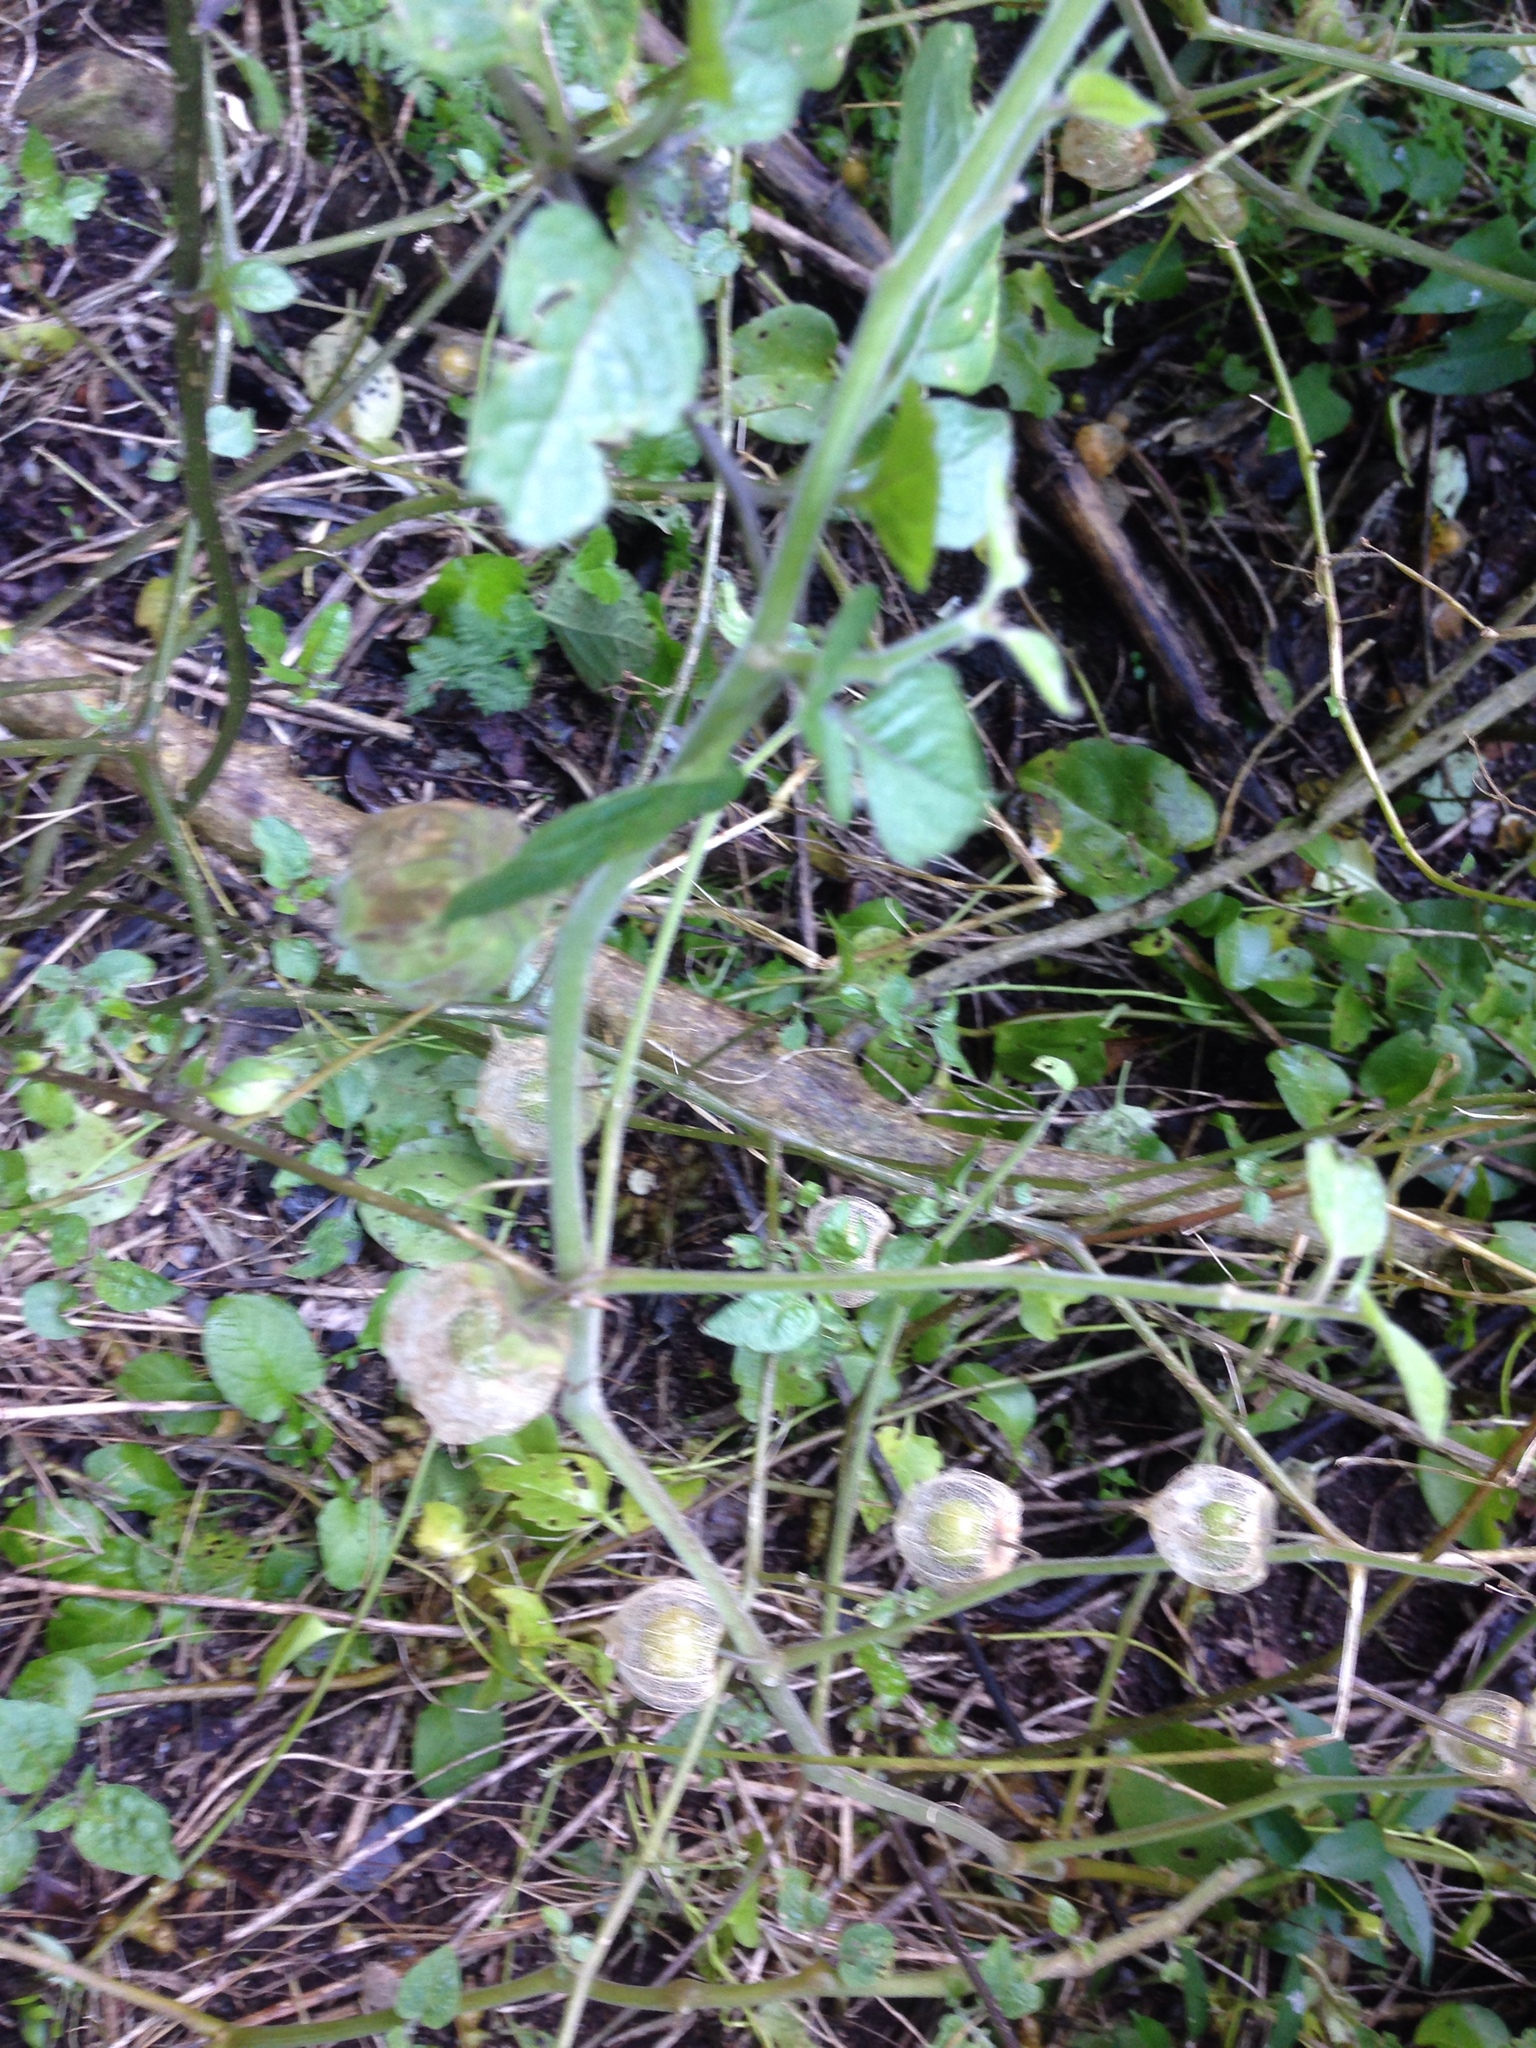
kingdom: Plantae
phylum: Tracheophyta
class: Magnoliopsida
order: Solanales
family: Solanaceae
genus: Physalis
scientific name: Physalis peruviana
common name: Cape-gooseberry
